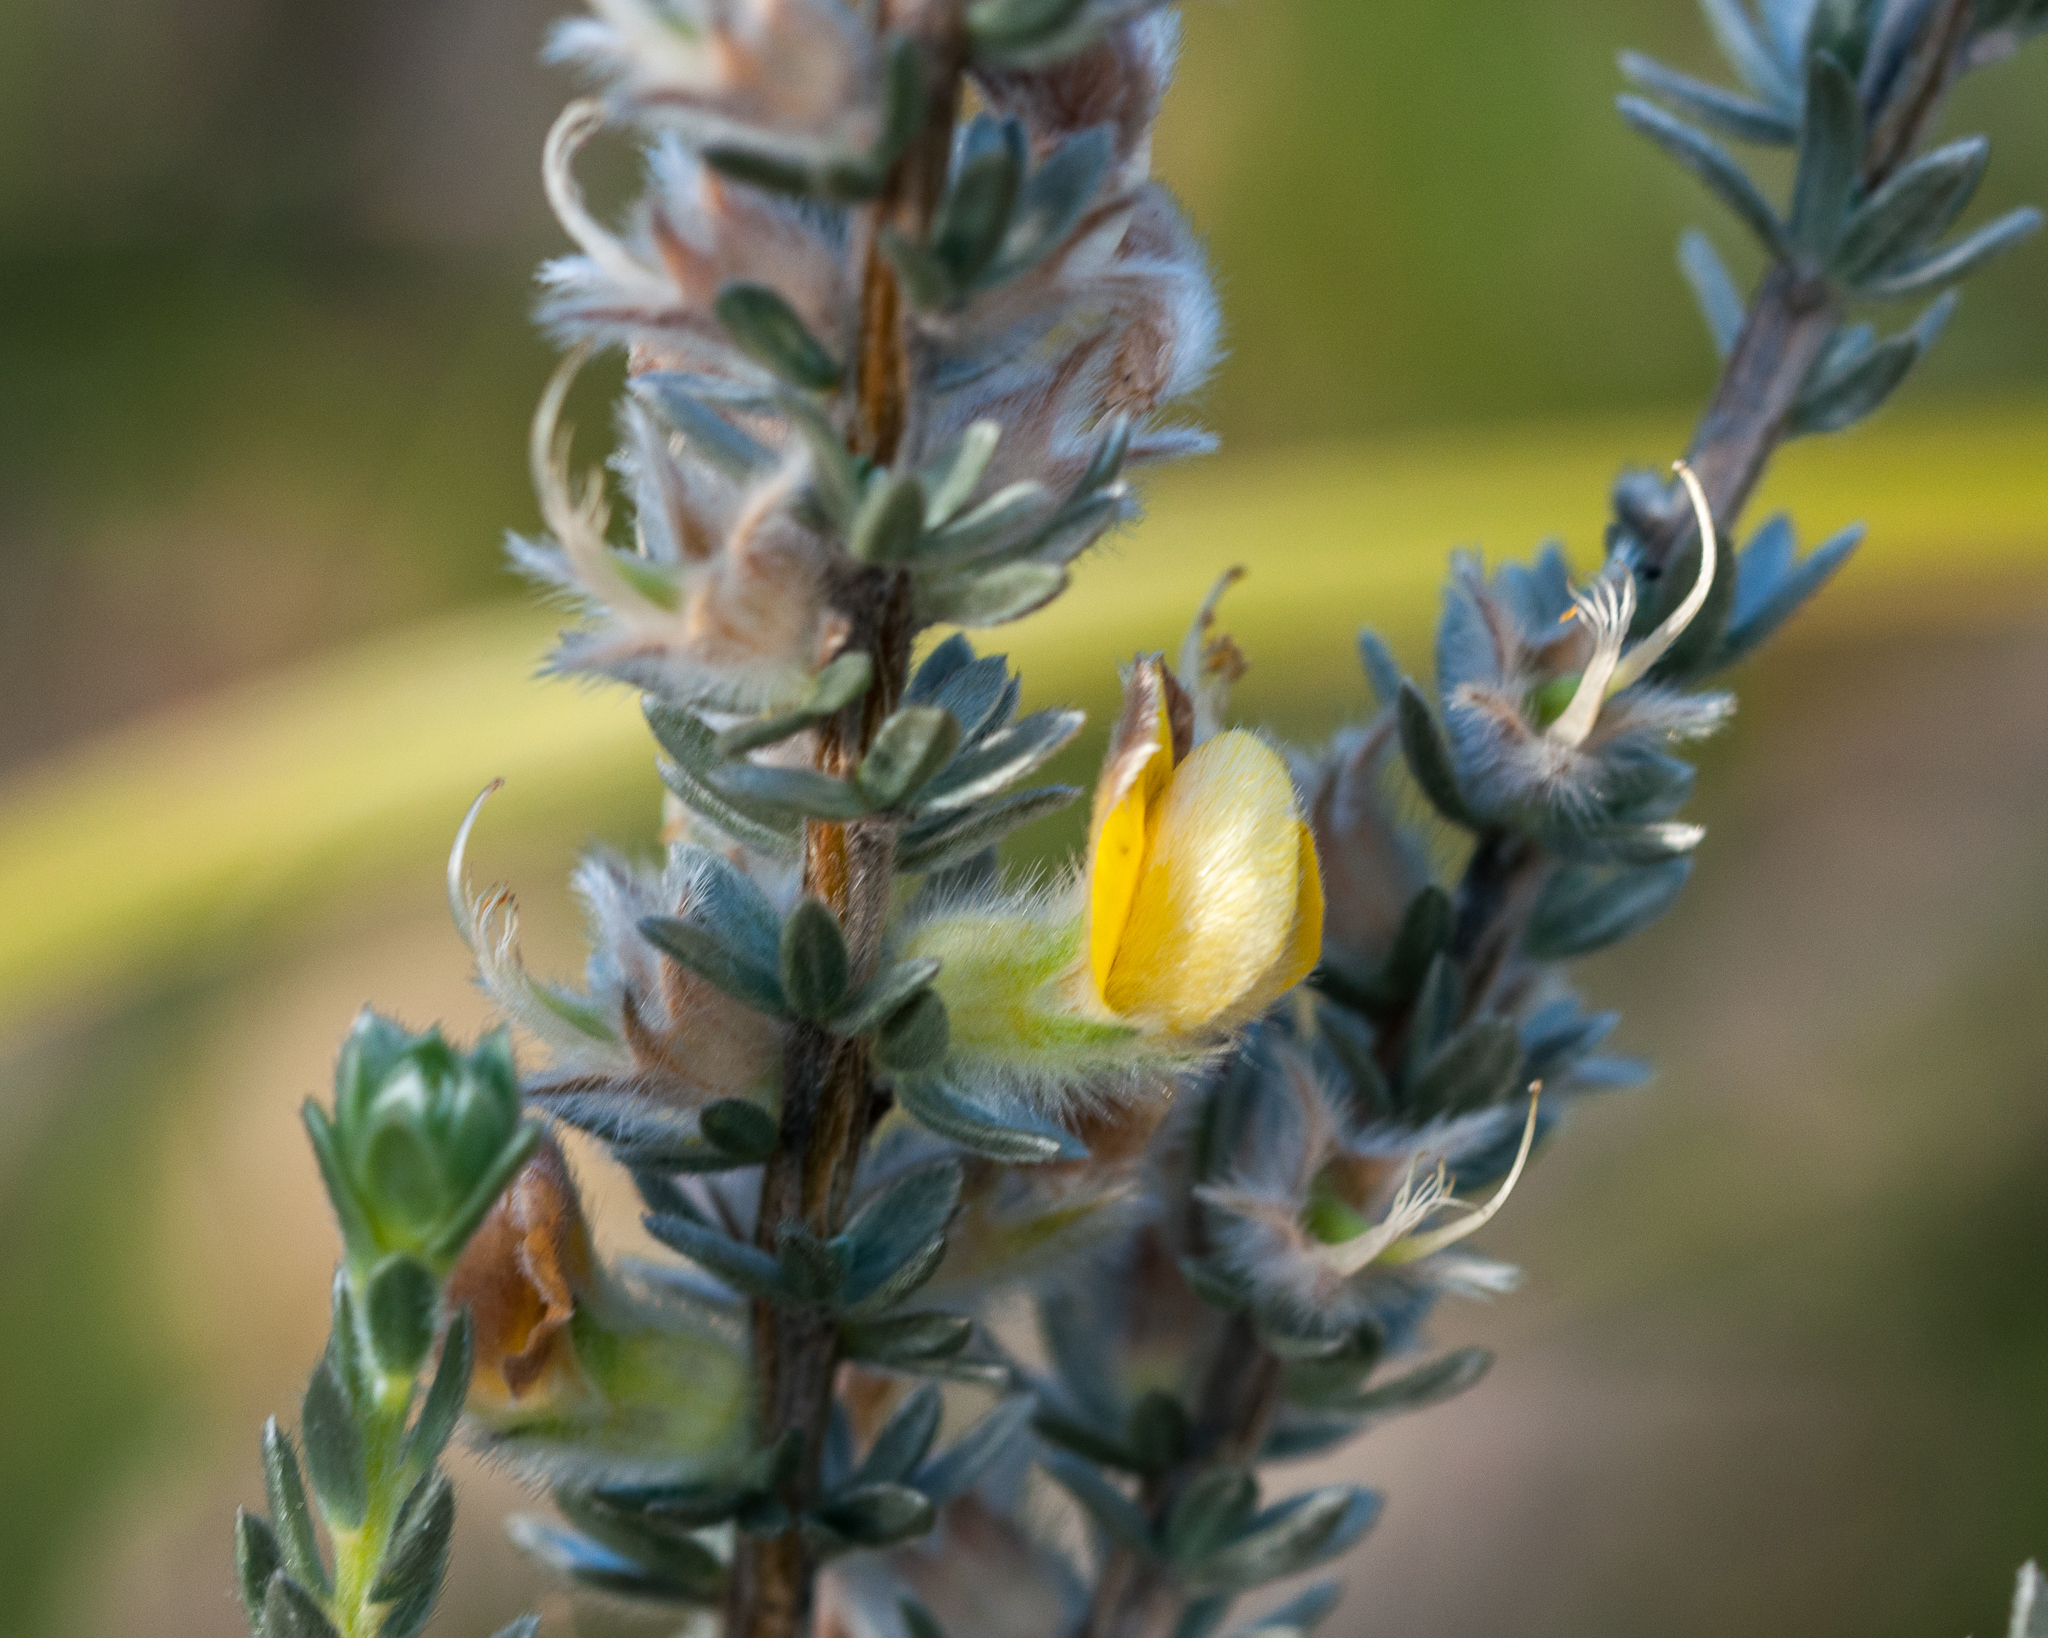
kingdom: Plantae
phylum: Tracheophyta
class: Magnoliopsida
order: Fabales
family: Fabaceae
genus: Aspalathus
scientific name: Aspalathus caledonensis
